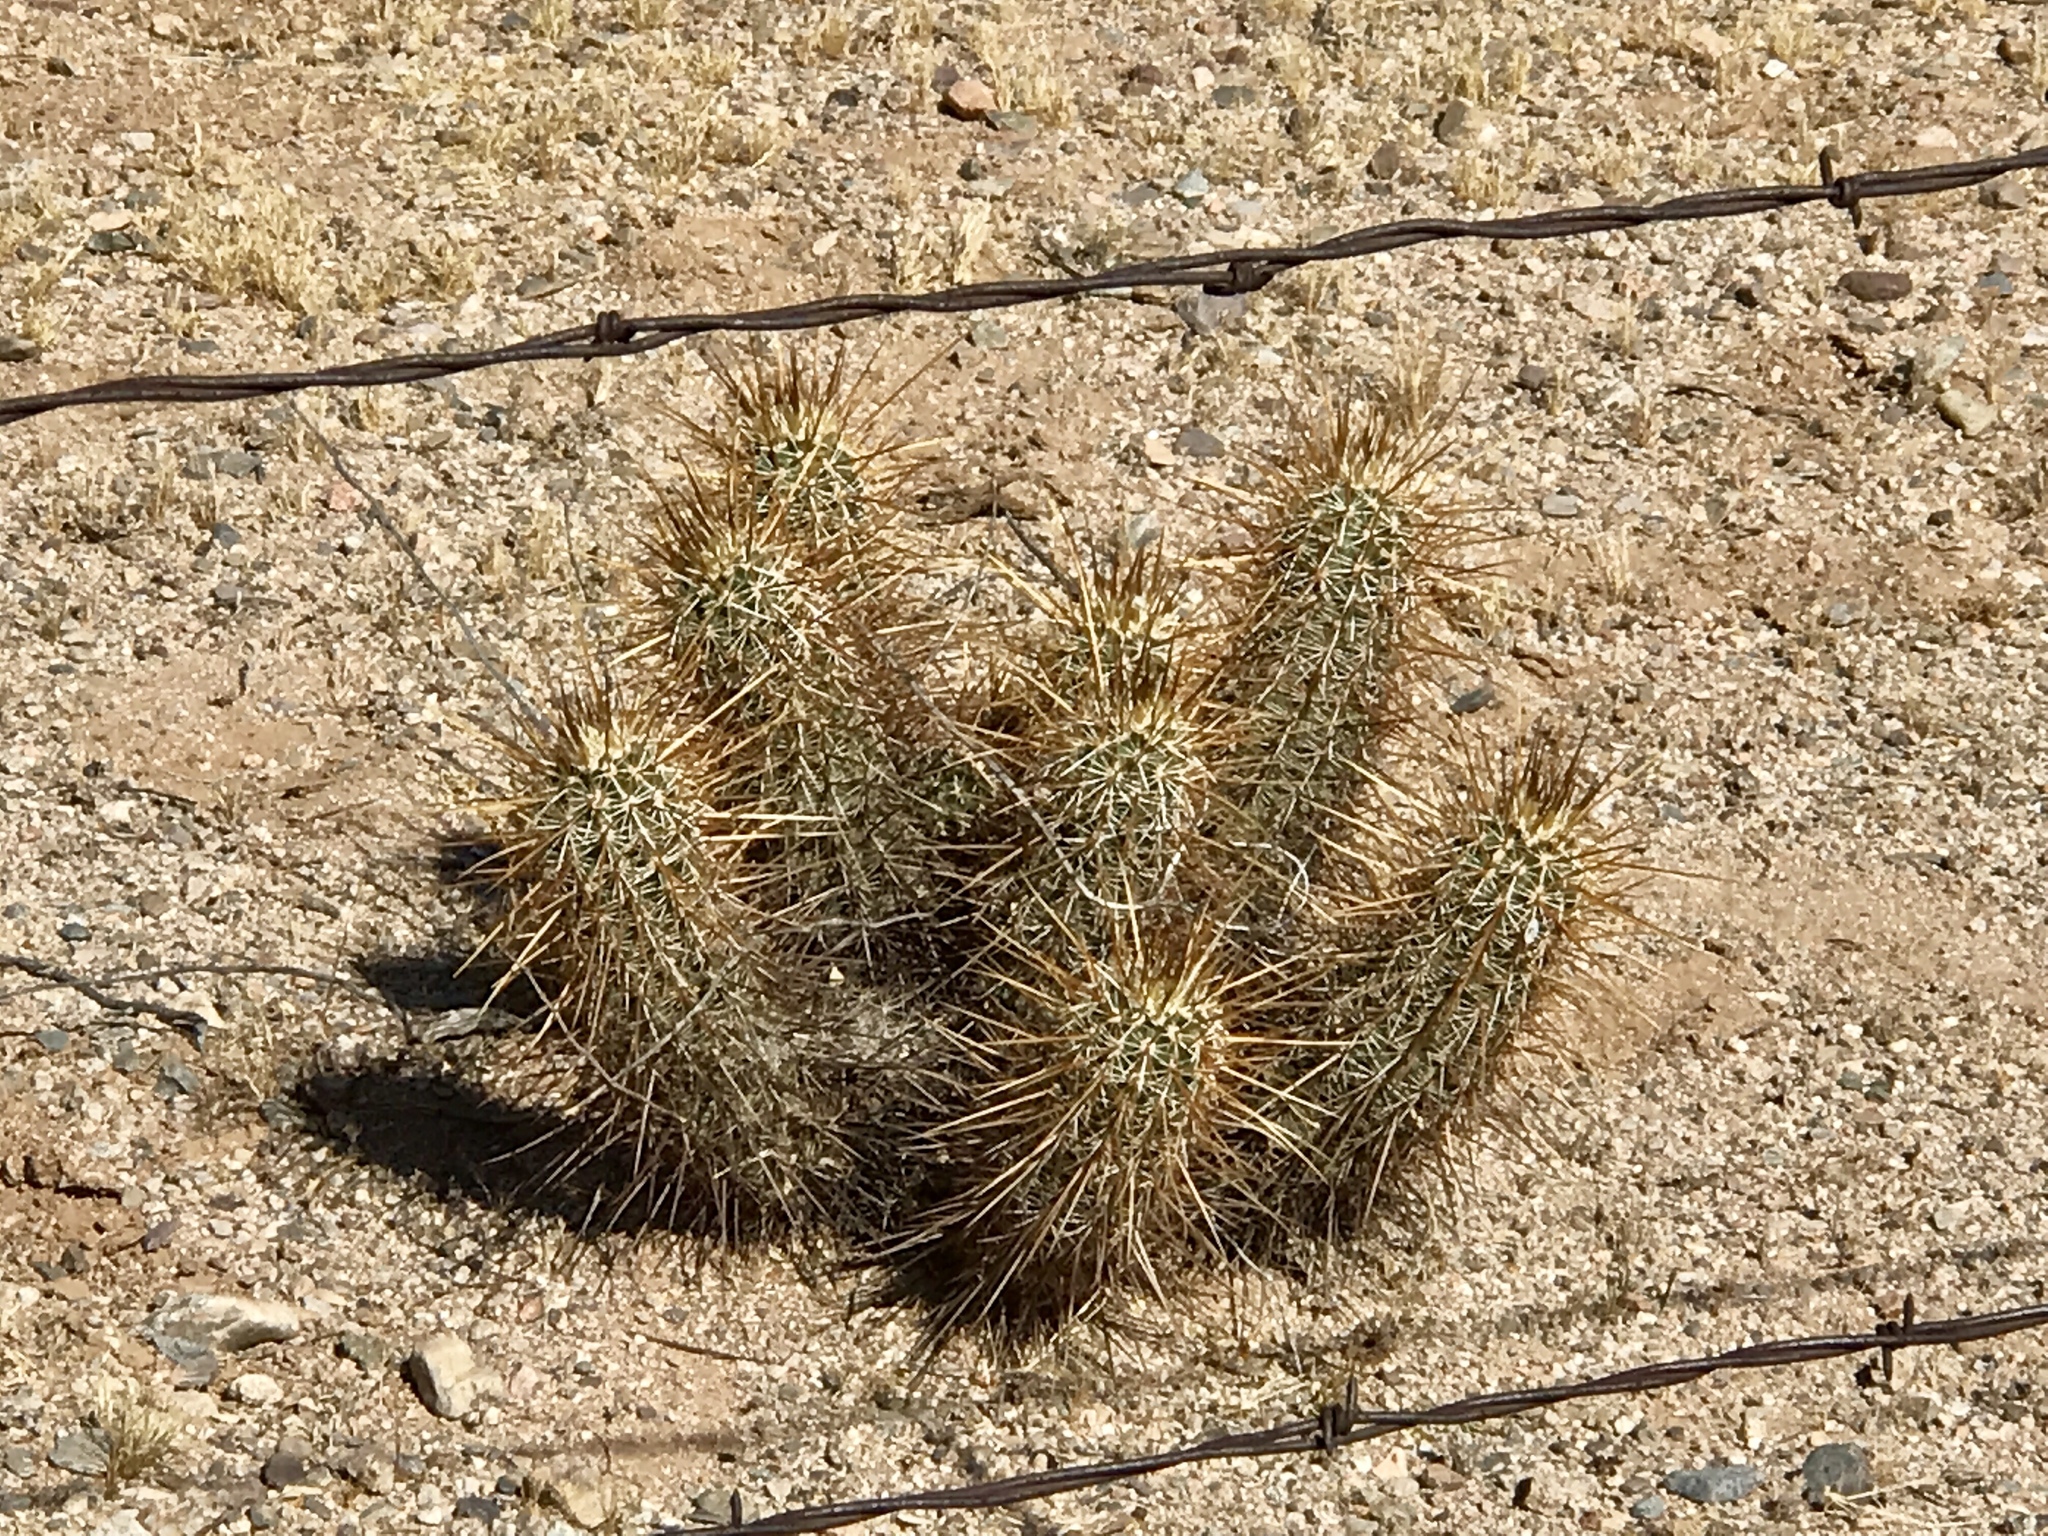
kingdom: Plantae
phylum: Tracheophyta
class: Magnoliopsida
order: Caryophyllales
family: Cactaceae
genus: Echinocereus
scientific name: Echinocereus engelmannii
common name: Engelmann's hedgehog cactus
